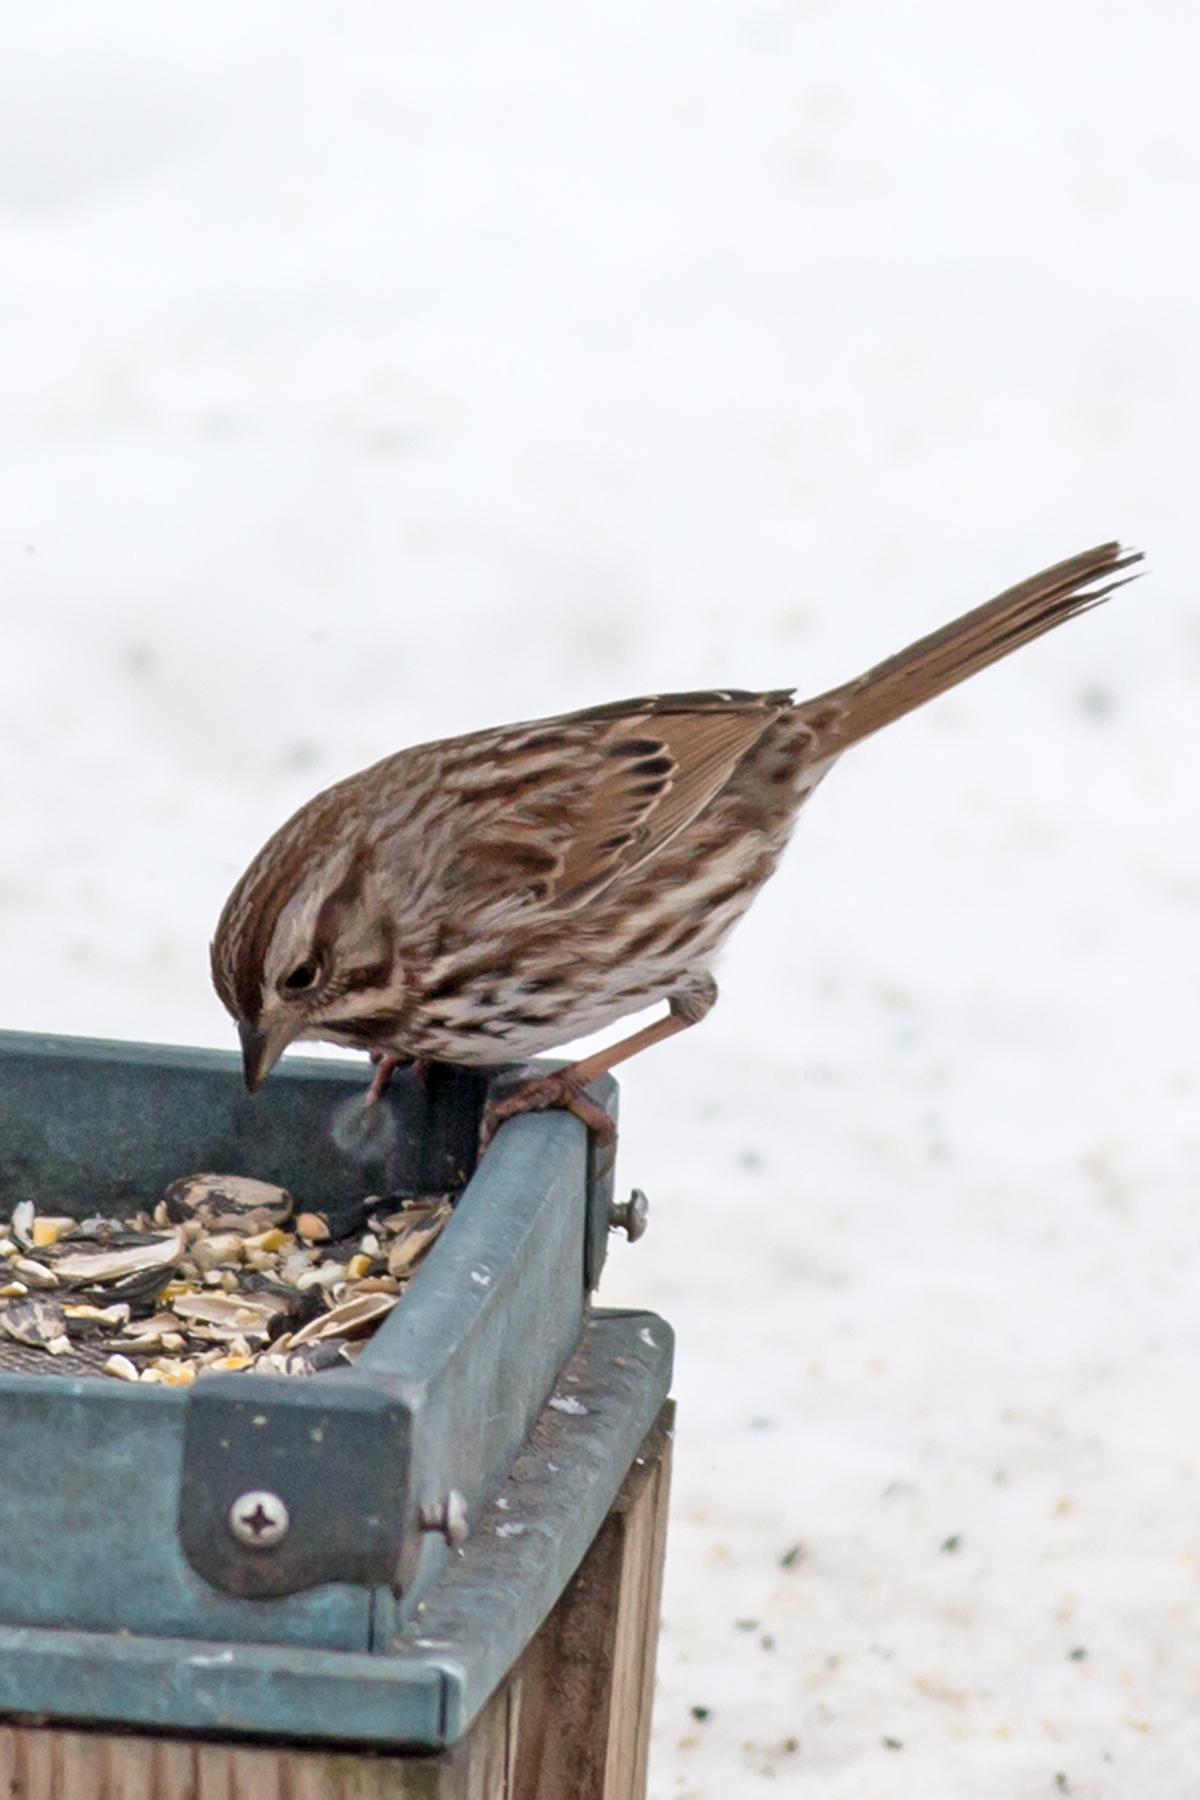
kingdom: Animalia
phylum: Chordata
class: Aves
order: Passeriformes
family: Passerellidae
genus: Melospiza
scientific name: Melospiza melodia
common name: Song sparrow
